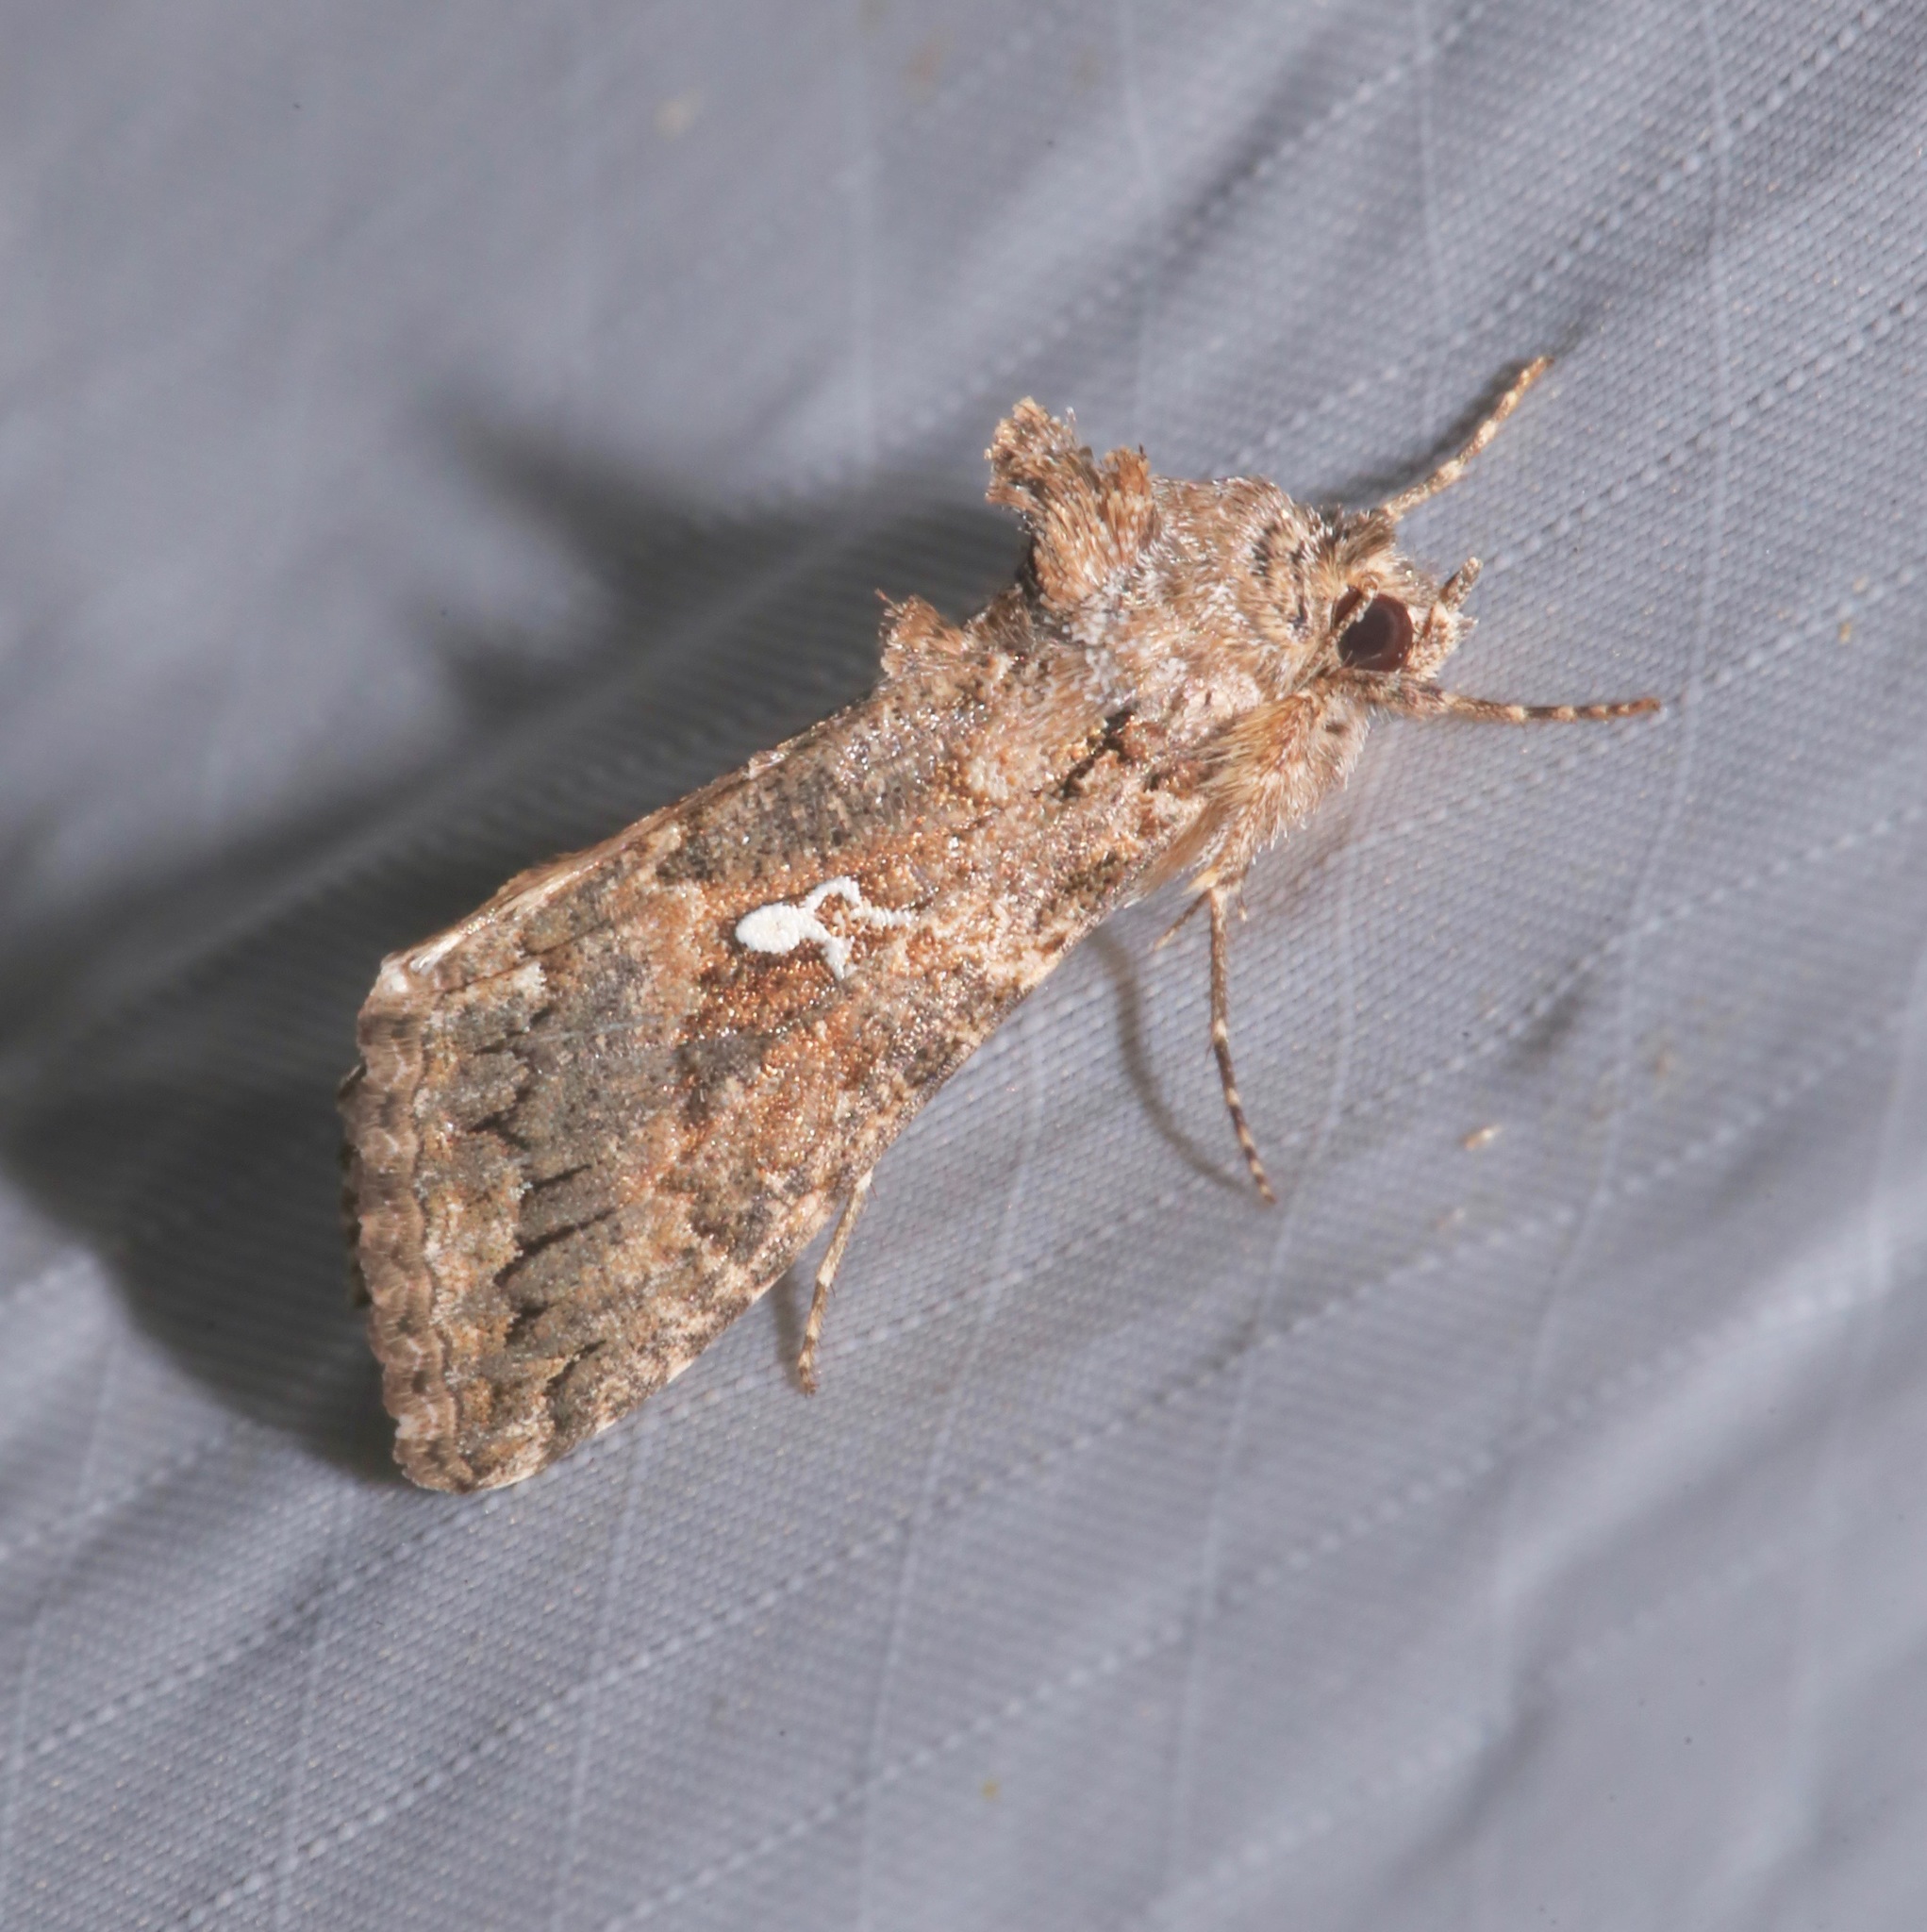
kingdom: Animalia
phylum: Arthropoda
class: Insecta
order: Lepidoptera
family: Noctuidae
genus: Trichoplusia
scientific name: Trichoplusia ni
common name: Ni moth
